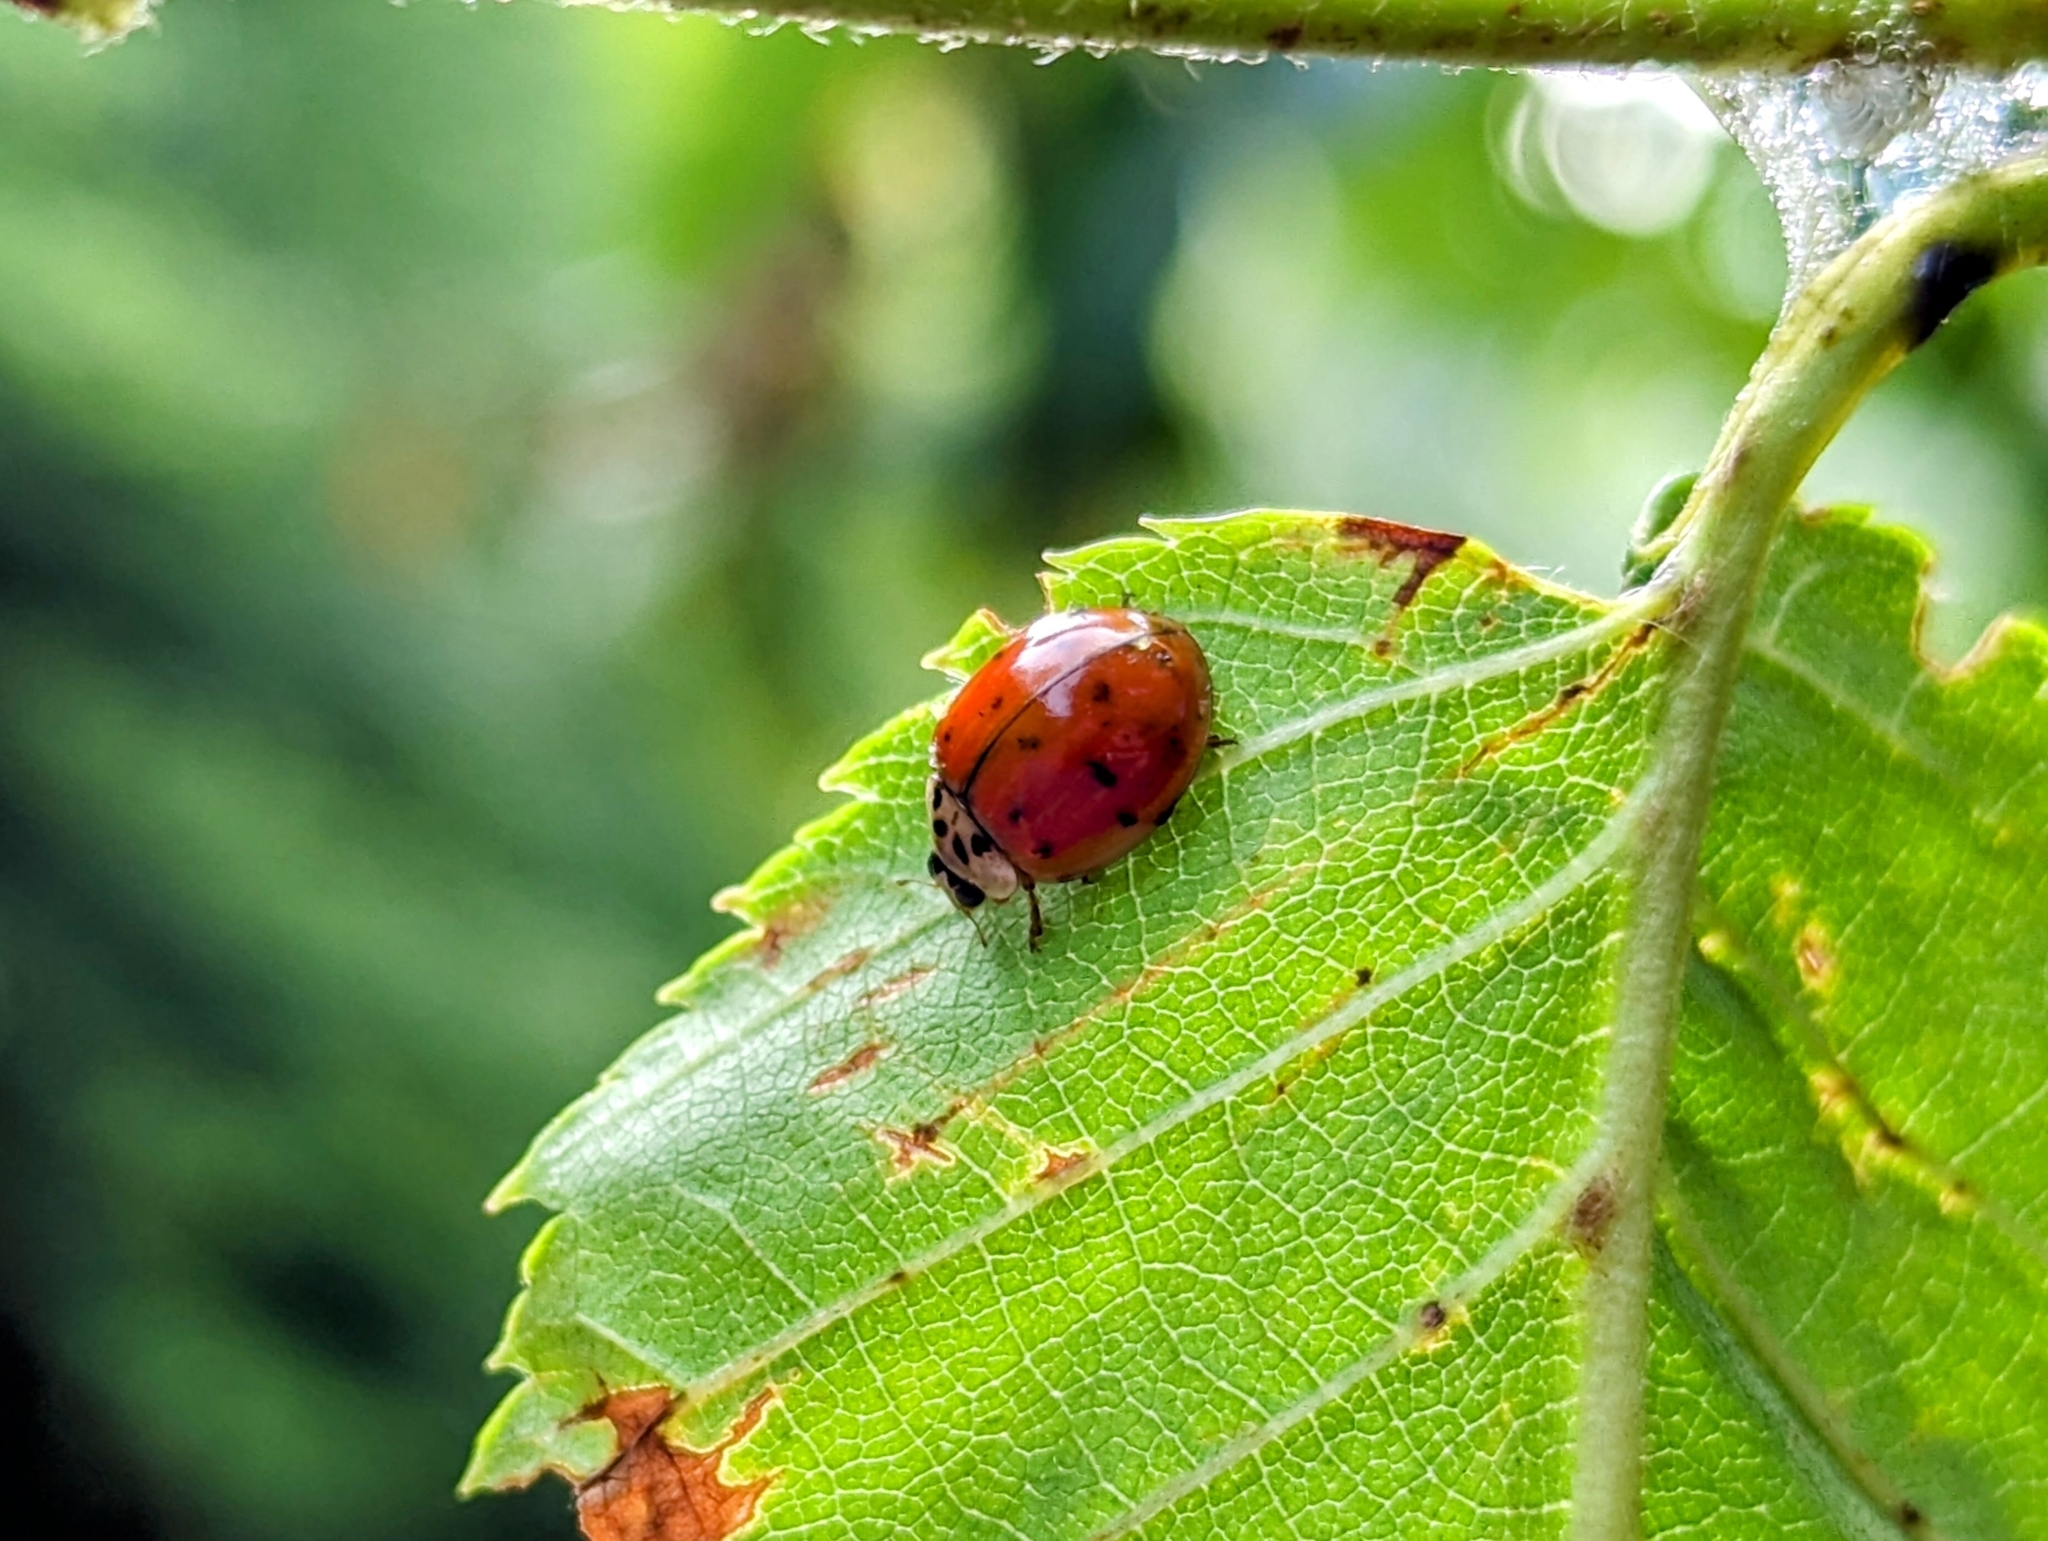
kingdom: Animalia
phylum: Arthropoda
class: Insecta
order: Coleoptera
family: Coccinellidae
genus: Harmonia
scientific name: Harmonia axyridis
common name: Harlequin ladybird
